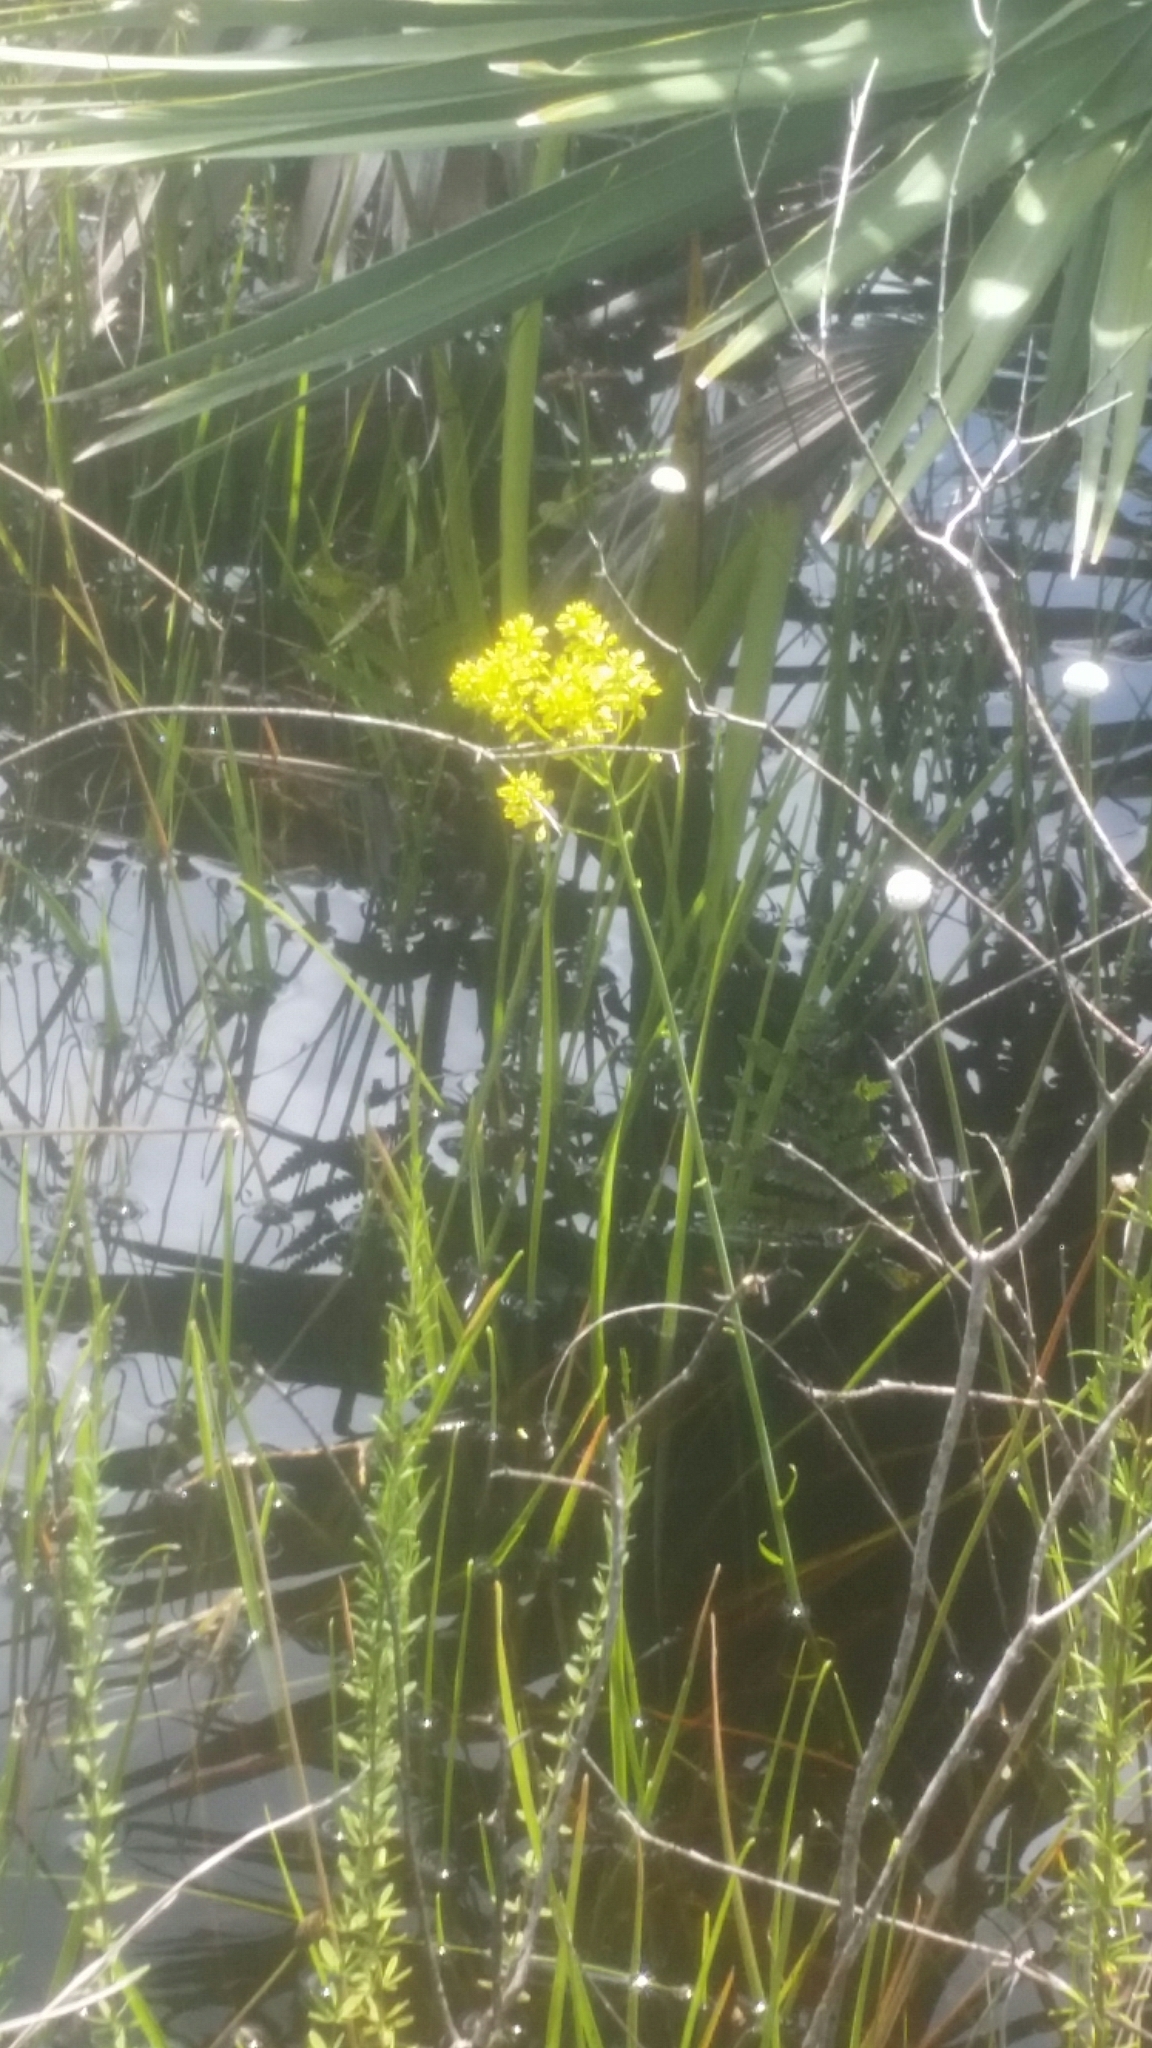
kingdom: Plantae
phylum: Tracheophyta
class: Magnoliopsida
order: Fabales
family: Polygalaceae
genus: Polygala
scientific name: Polygala cymosa
